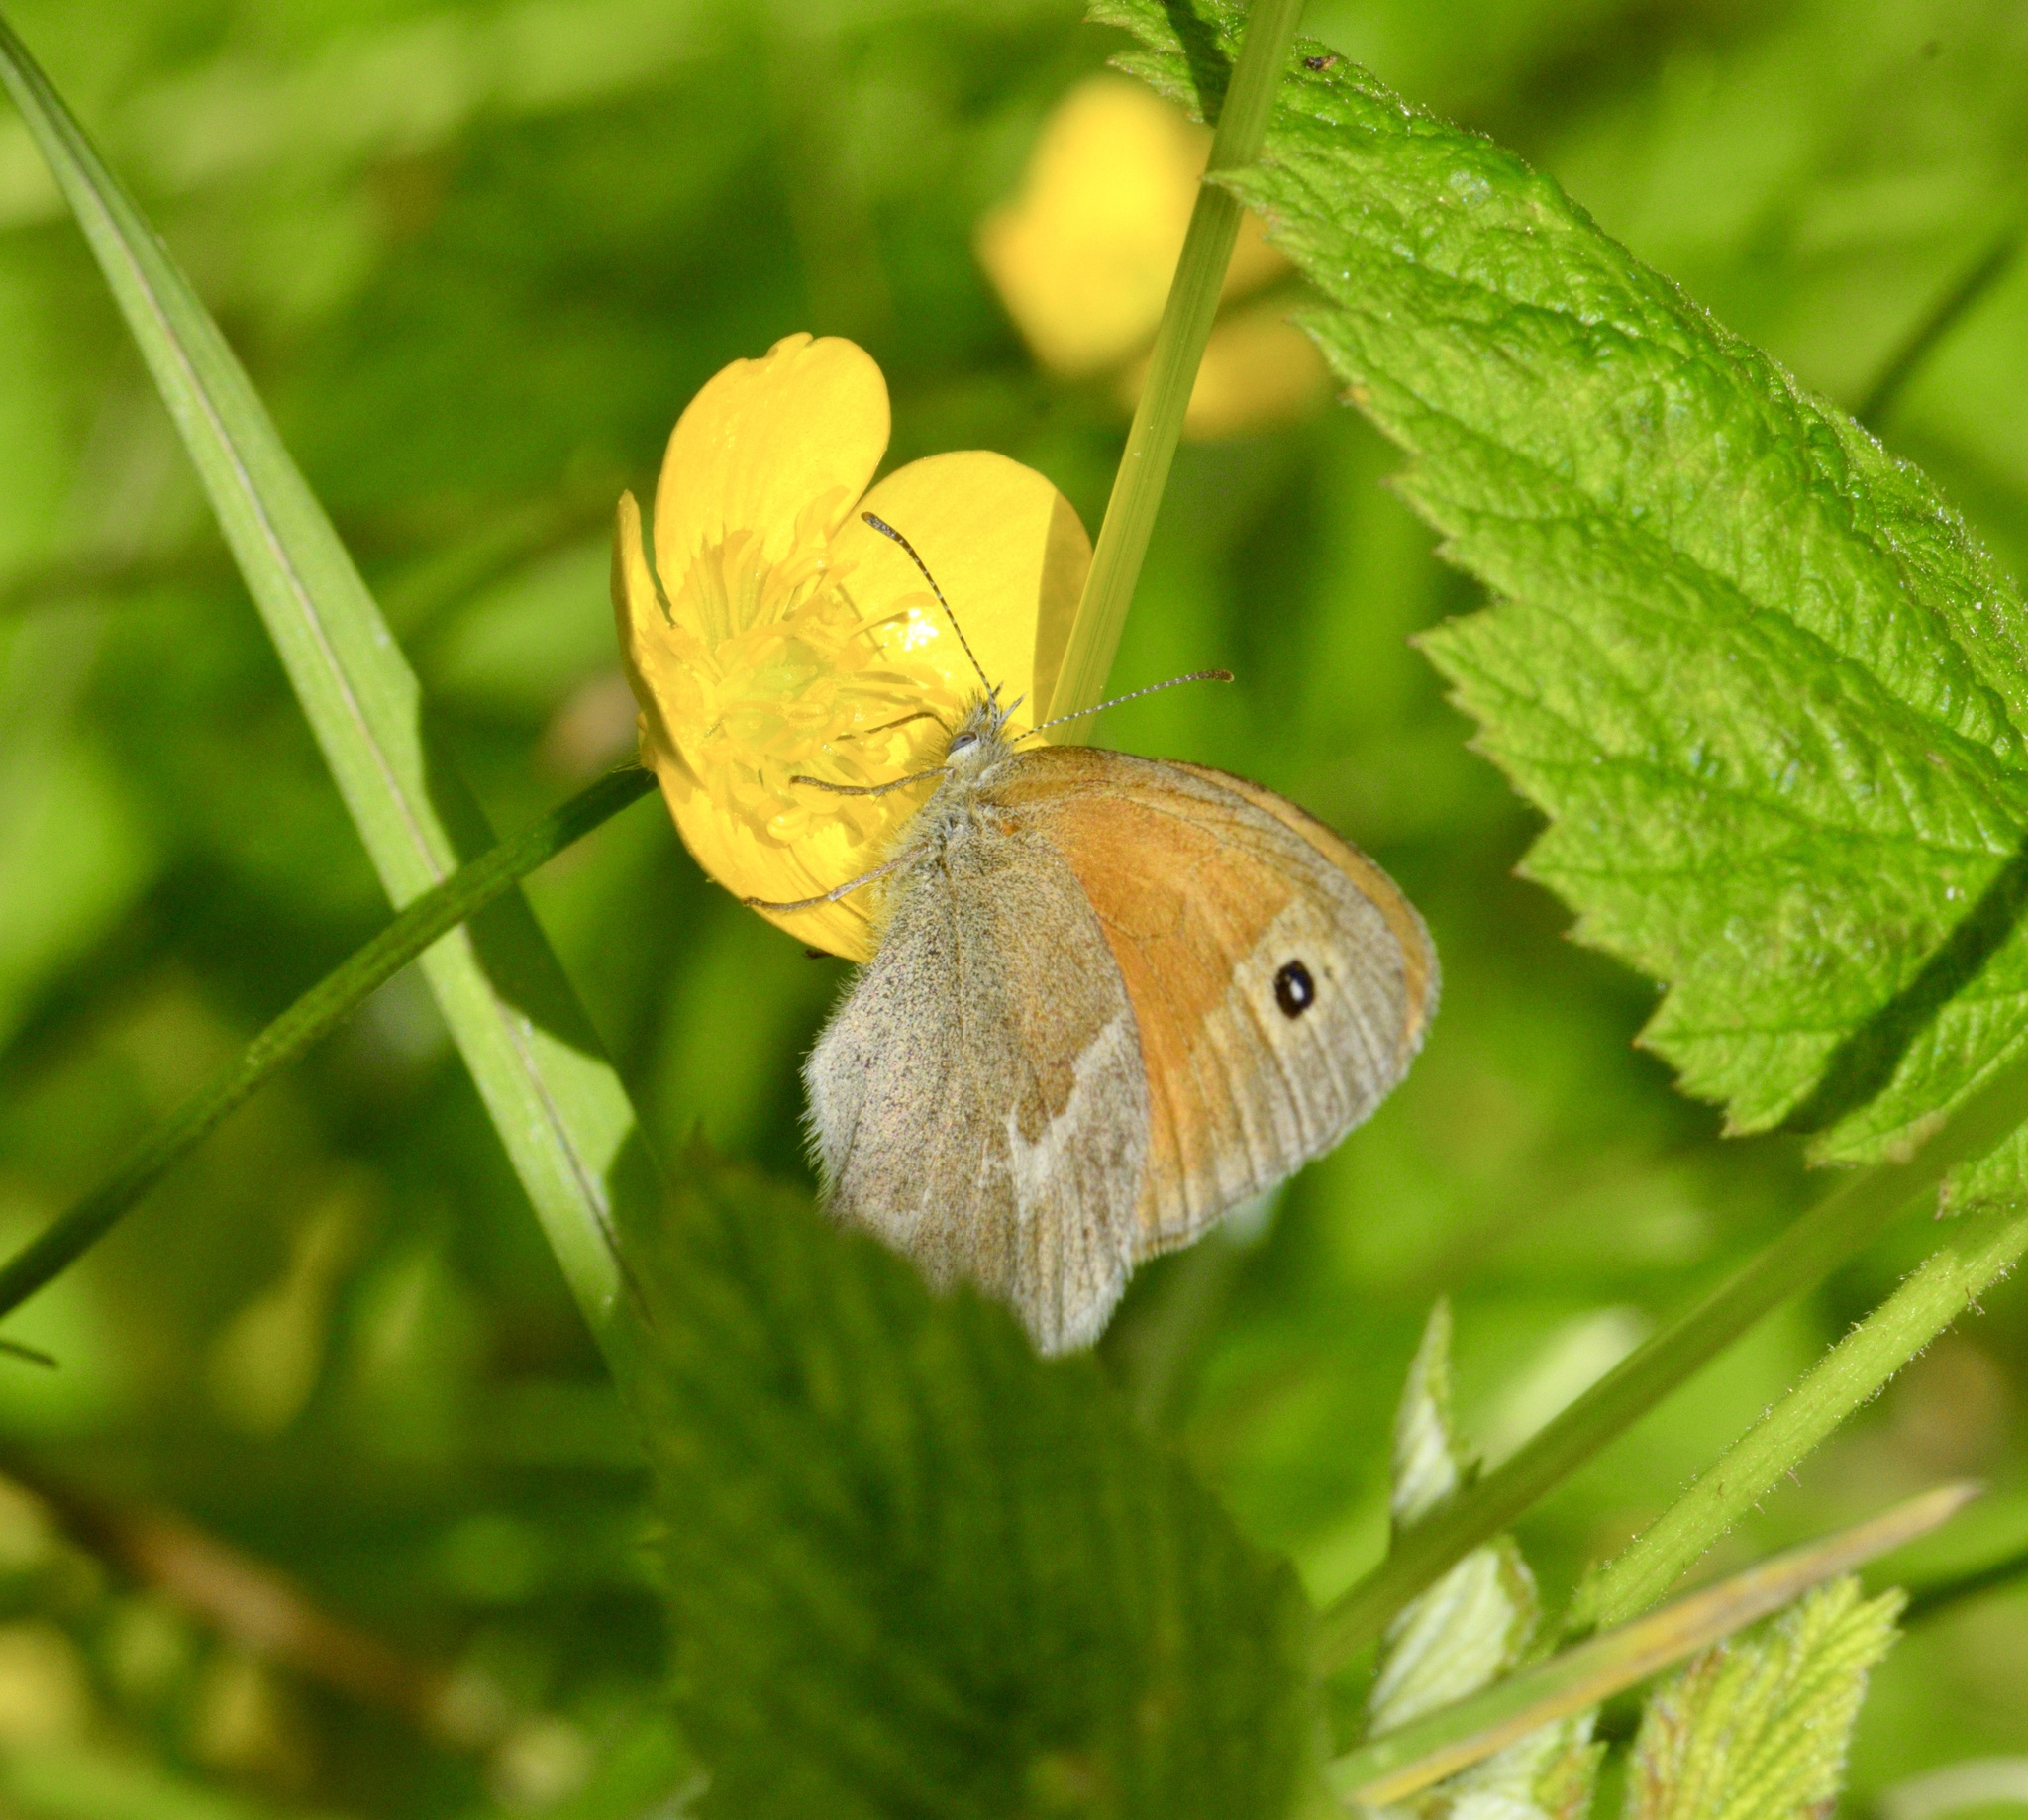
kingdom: Animalia
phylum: Arthropoda
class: Insecta
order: Lepidoptera
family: Nymphalidae
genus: Coenonympha
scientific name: Coenonympha california
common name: Common ringlet
